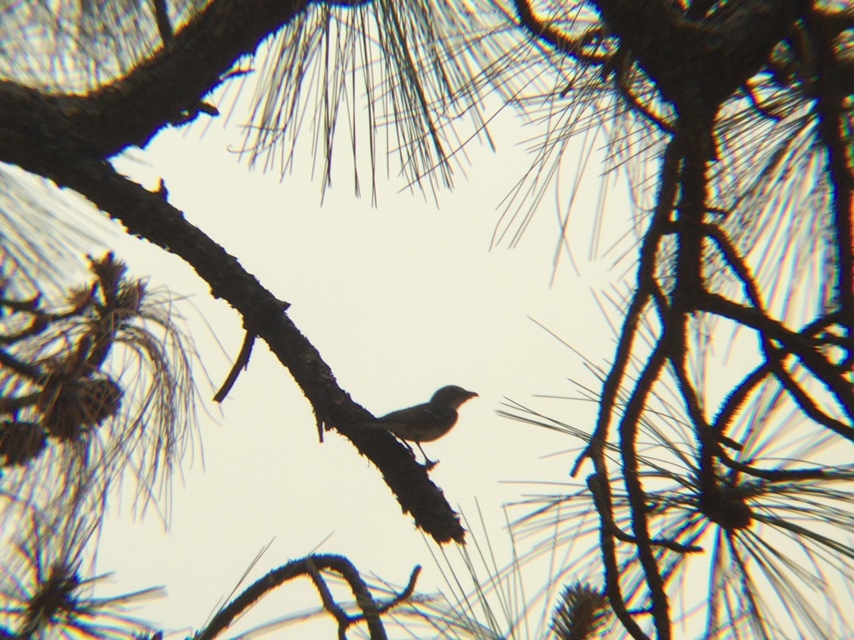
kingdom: Animalia
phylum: Chordata
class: Aves
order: Passeriformes
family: Vireonidae
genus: Vireo
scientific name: Vireo plumbeus
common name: Plumbeous vireo
